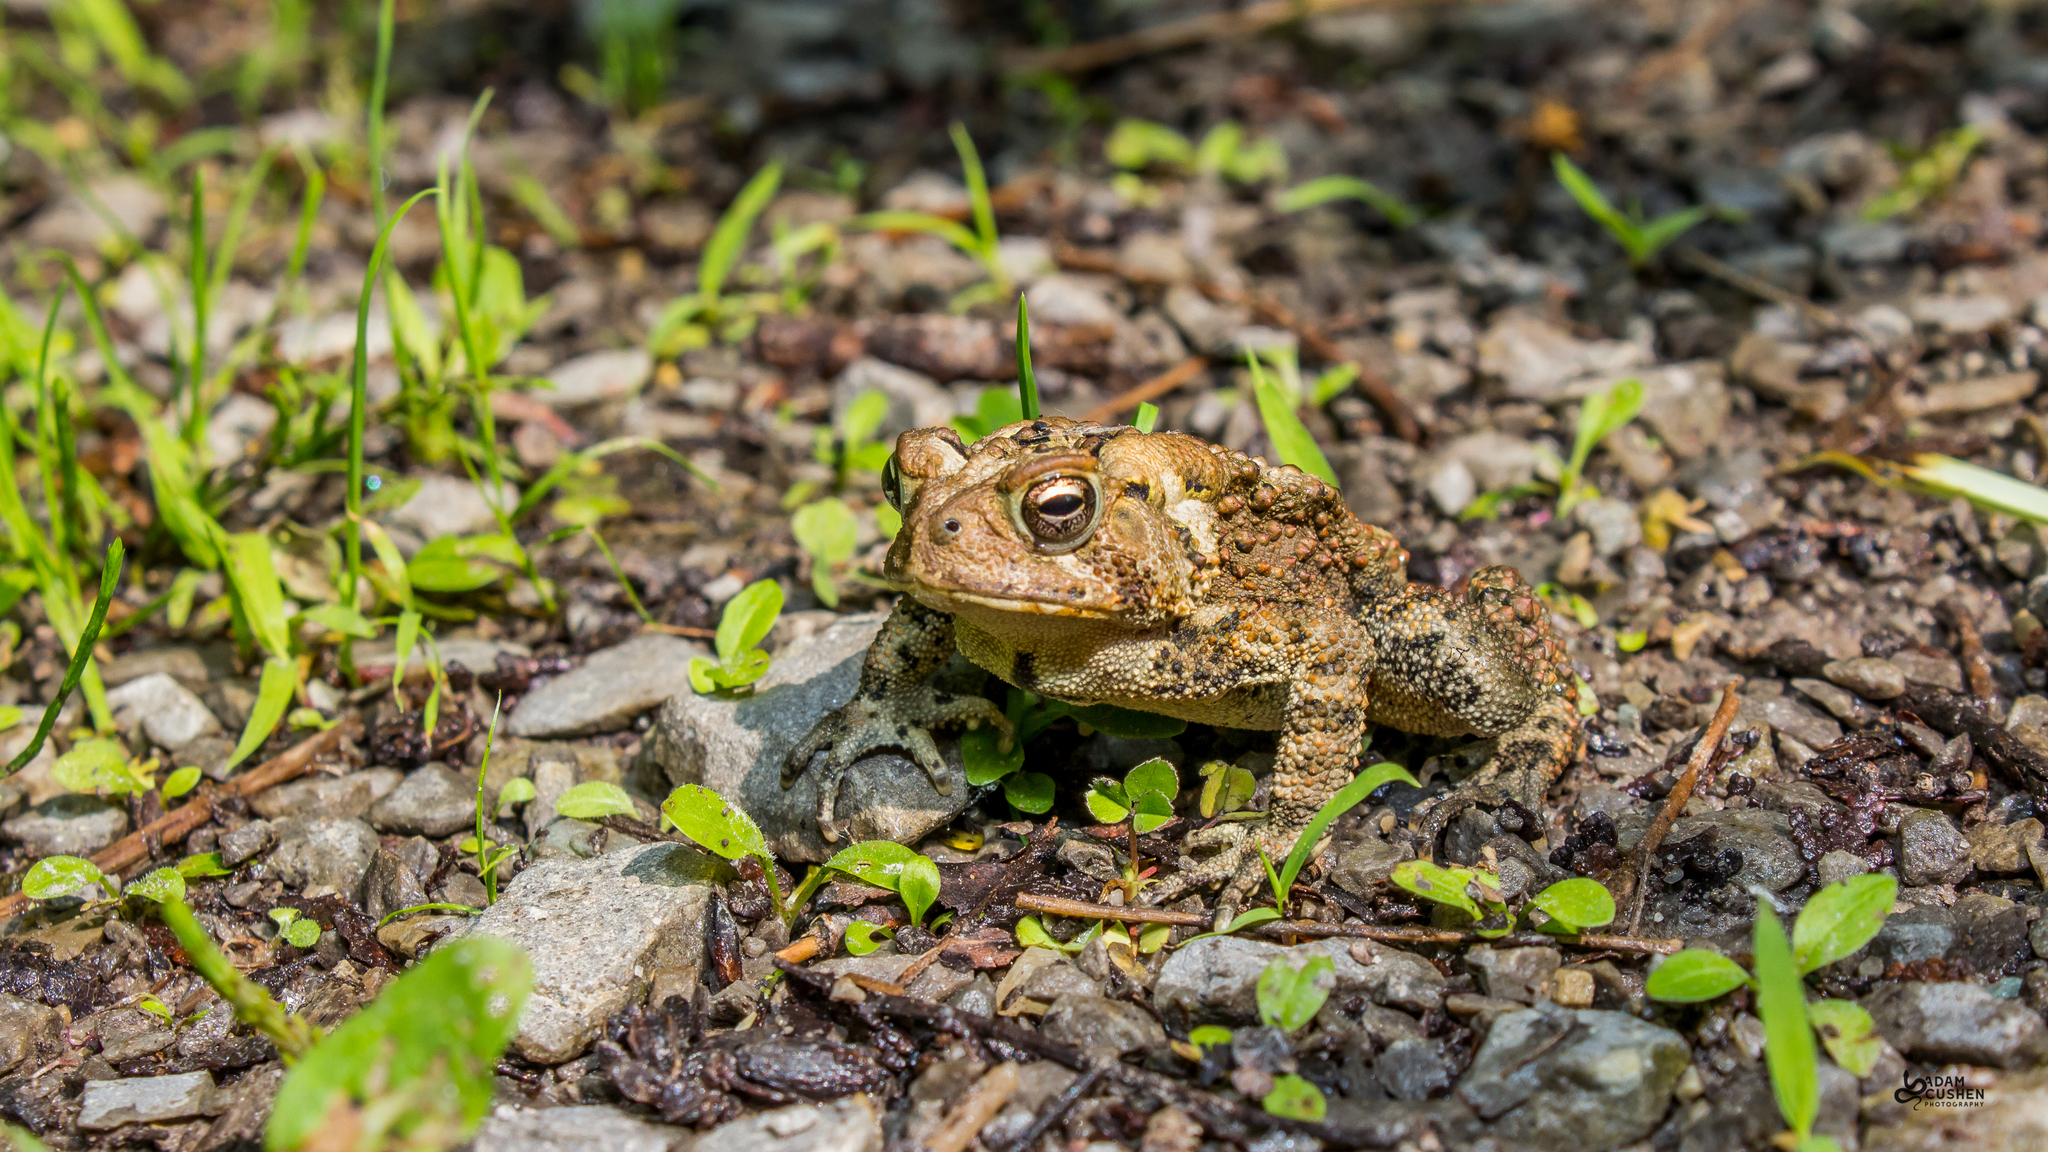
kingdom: Animalia
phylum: Chordata
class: Amphibia
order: Anura
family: Bufonidae
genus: Anaxyrus
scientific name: Anaxyrus americanus
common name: American toad
